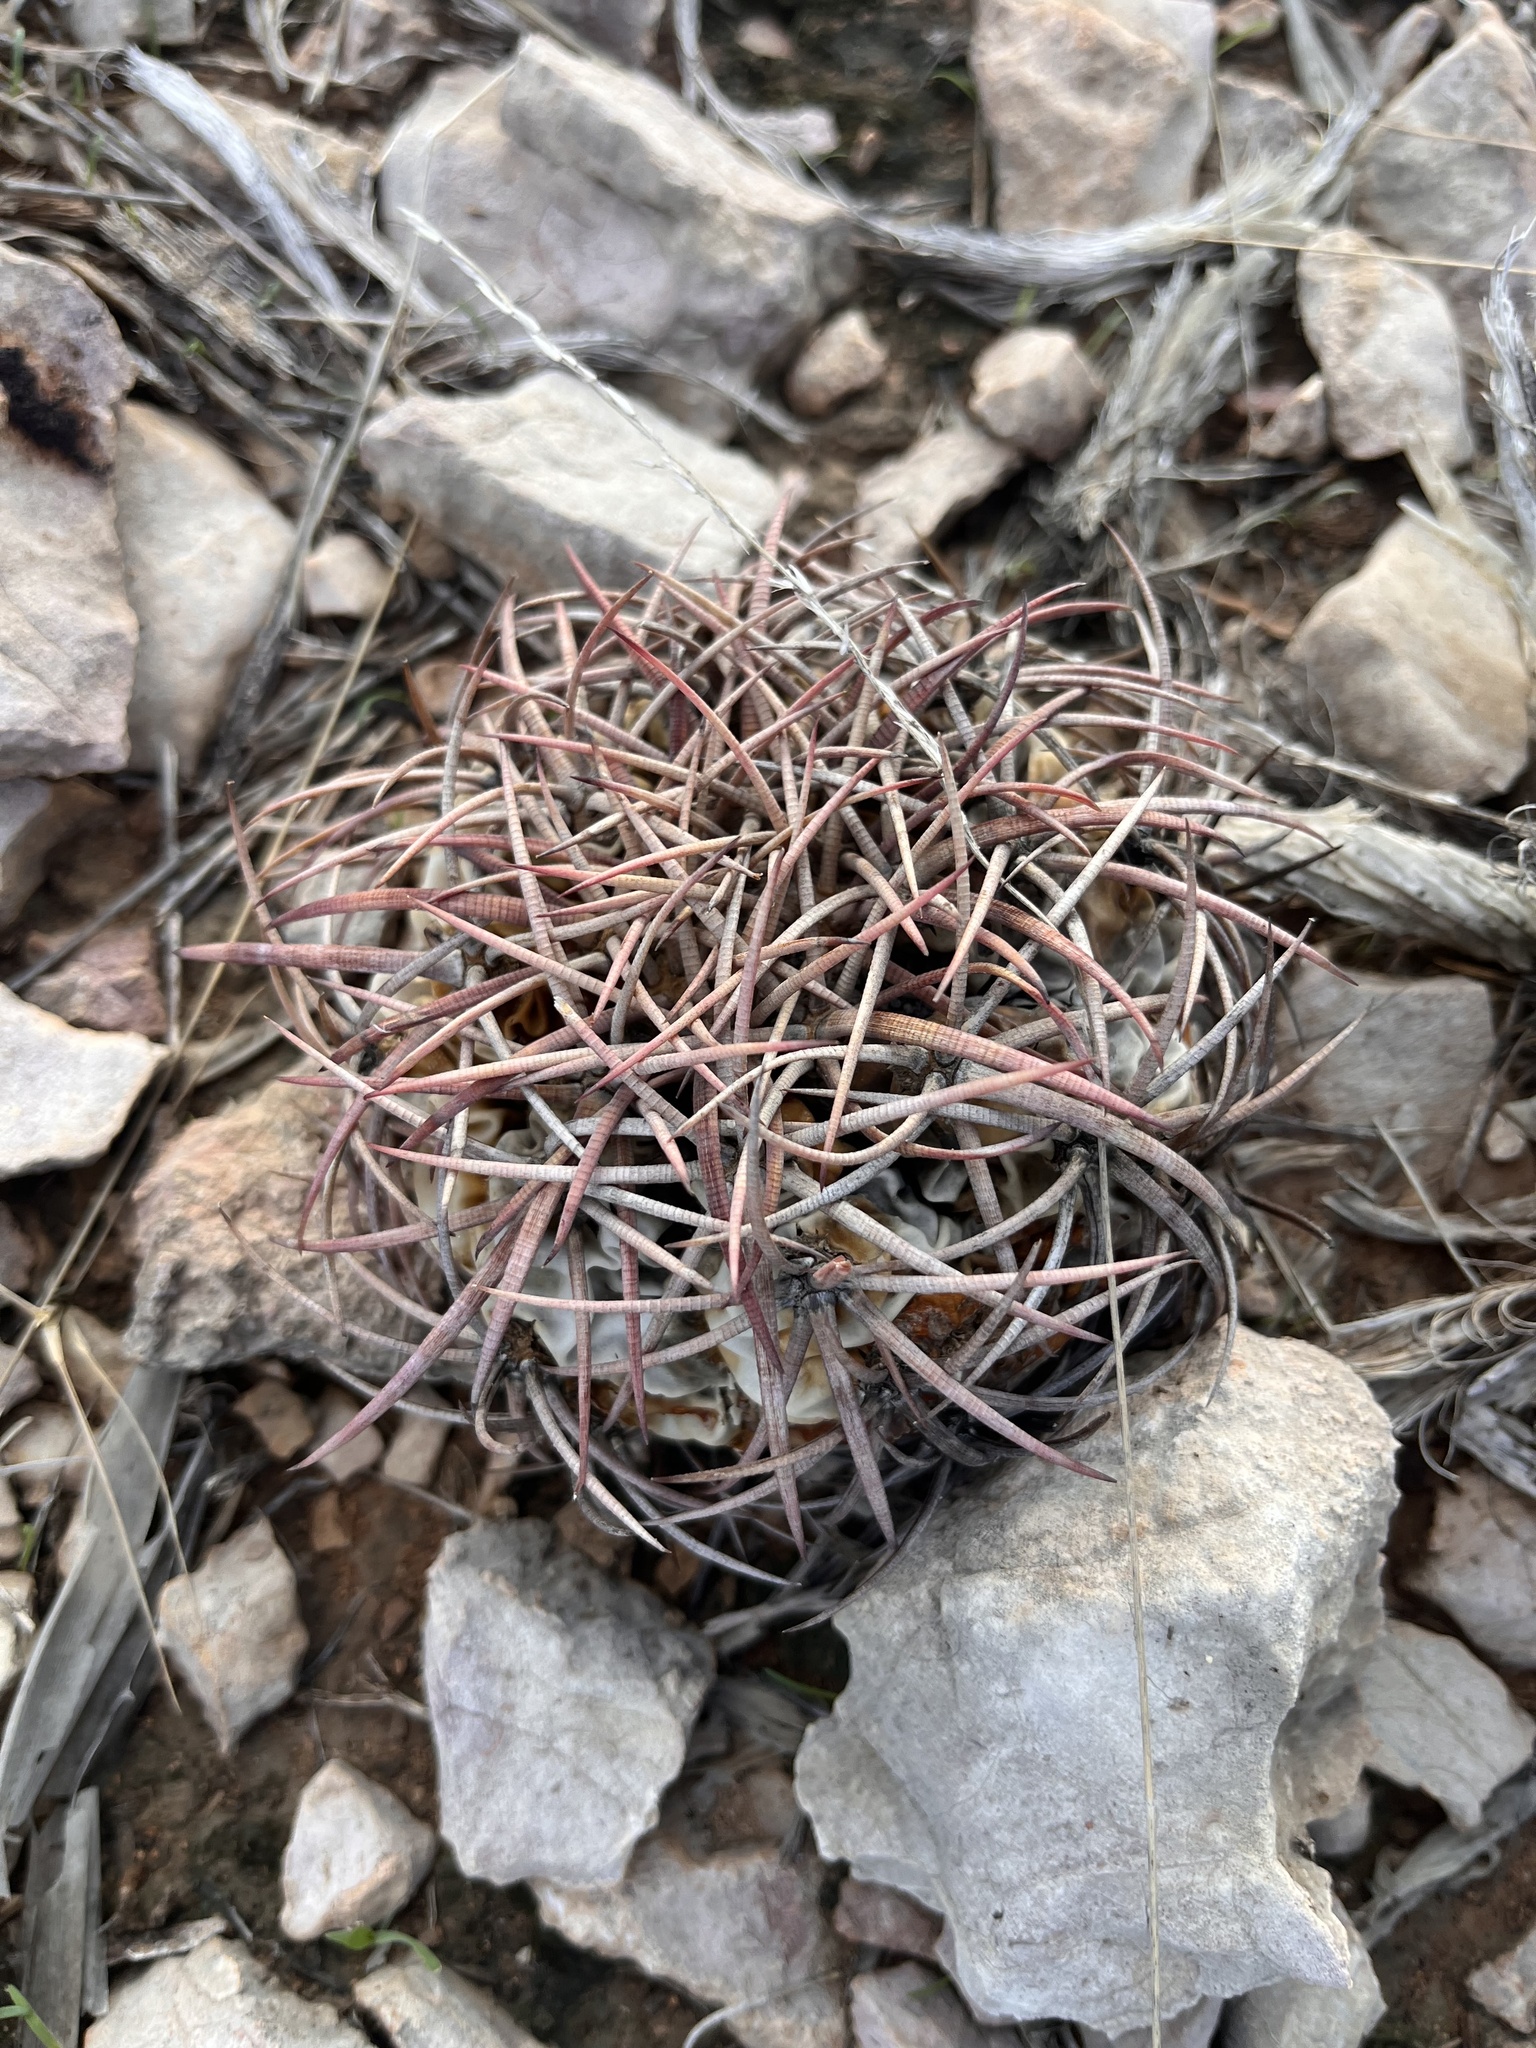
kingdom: Plantae
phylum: Tracheophyta
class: Magnoliopsida
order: Caryophyllales
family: Cactaceae
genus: Echinocactus
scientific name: Echinocactus horizonthalonius
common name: Devilshead
